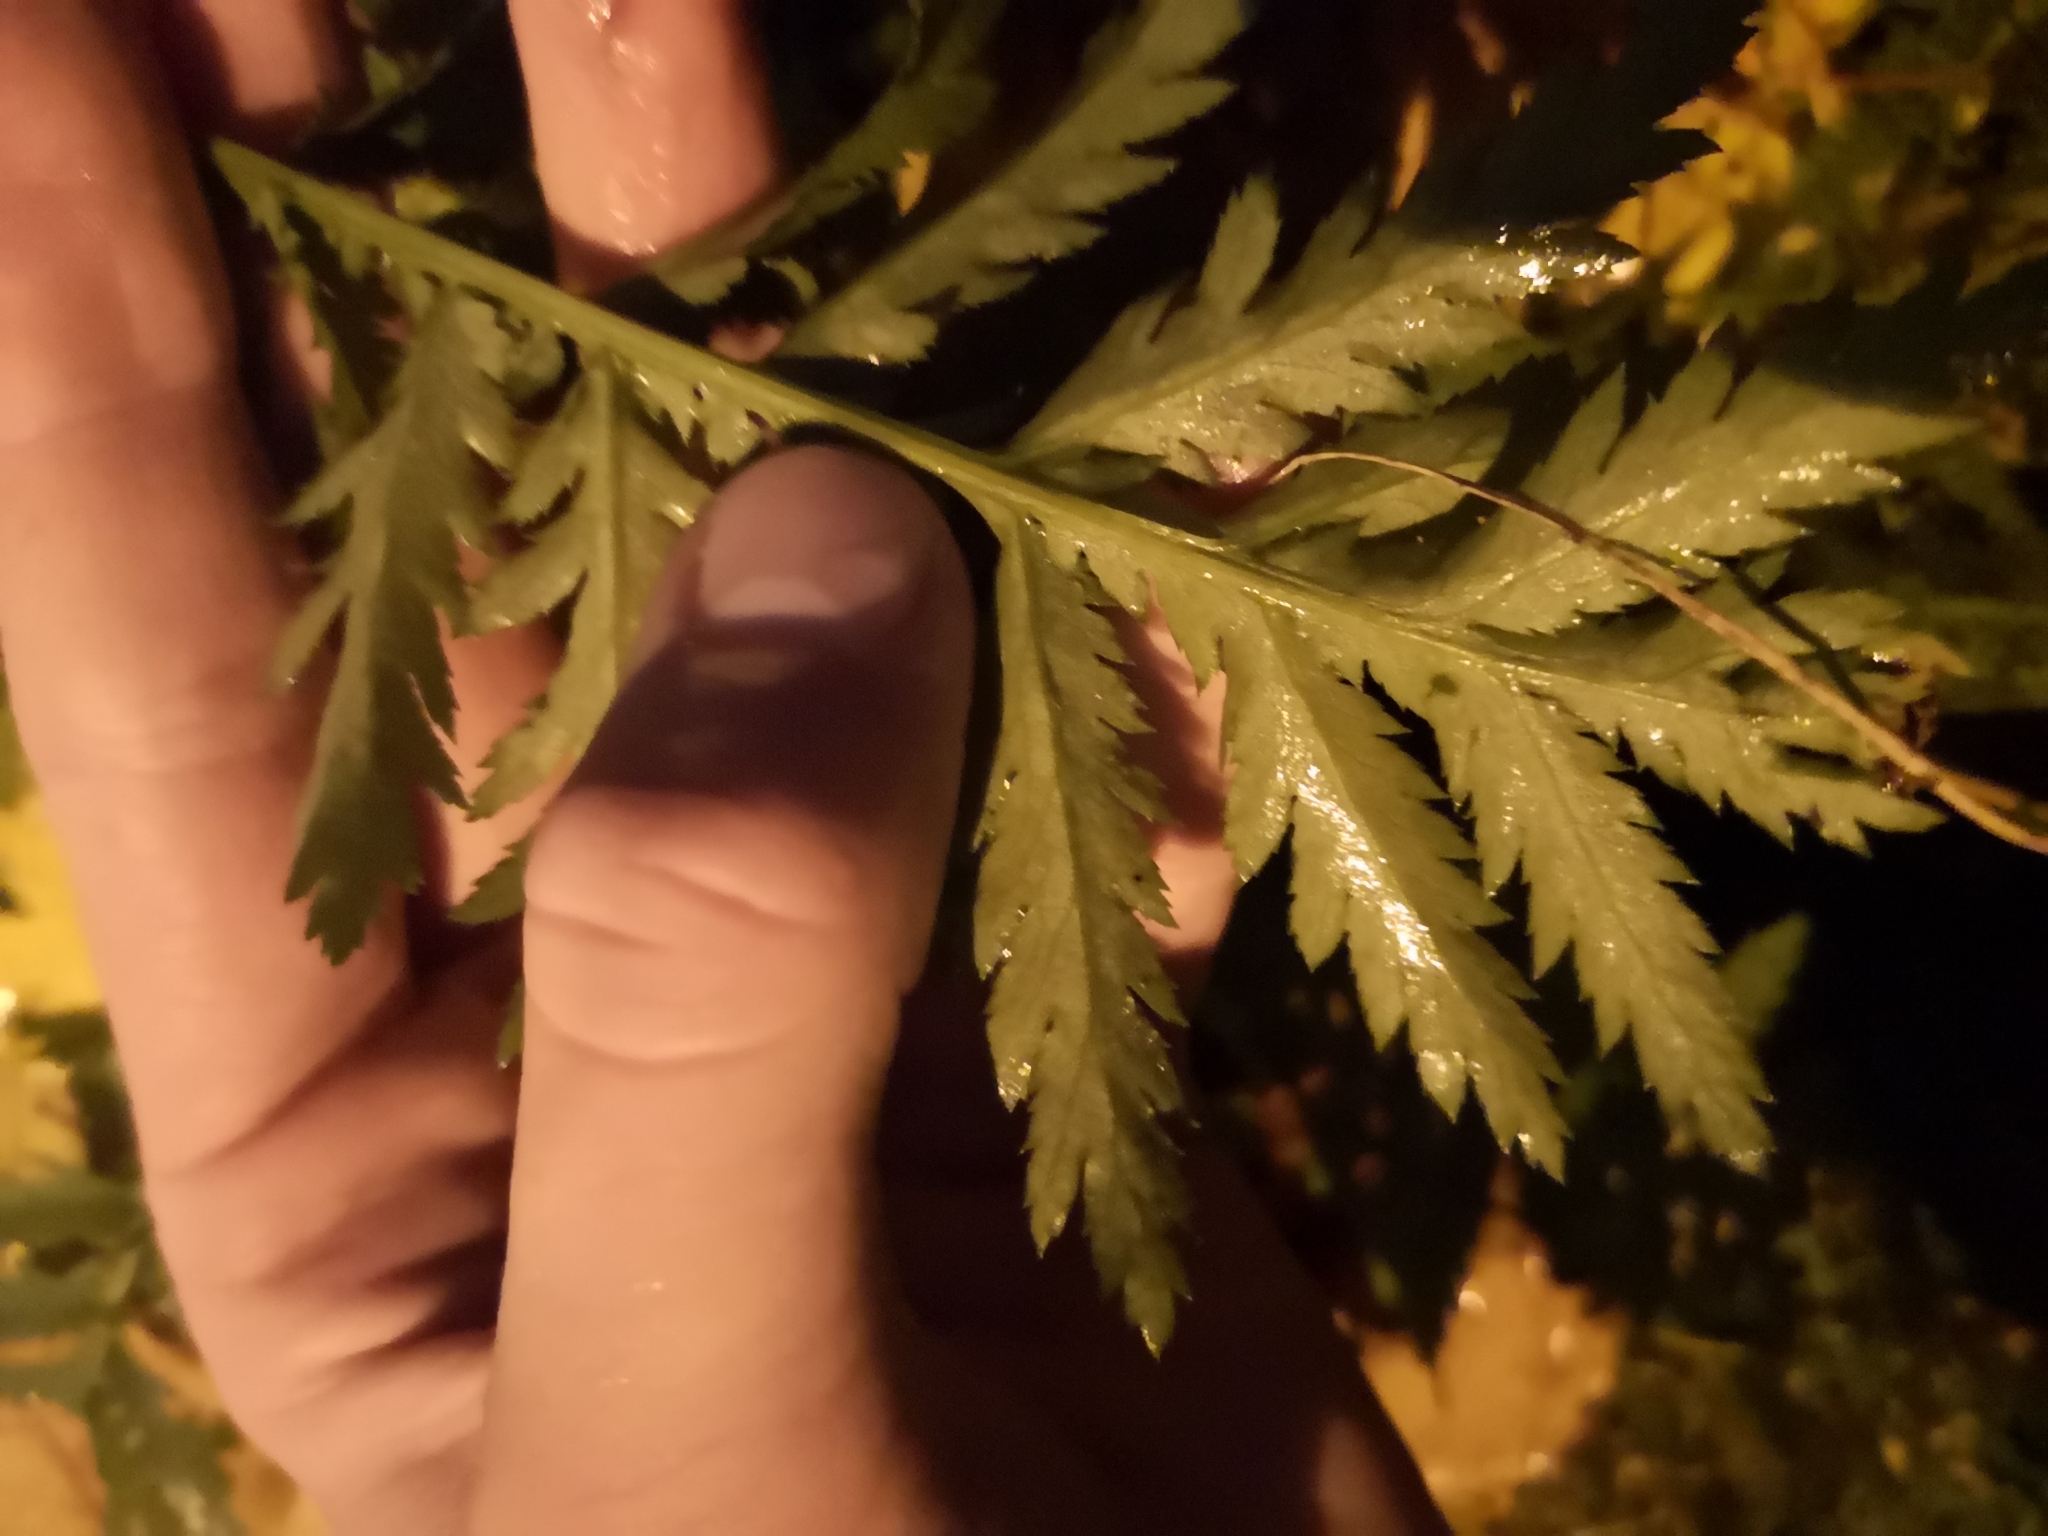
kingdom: Plantae
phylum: Tracheophyta
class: Magnoliopsida
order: Asterales
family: Asteraceae
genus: Tanacetum
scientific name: Tanacetum vulgare
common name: Common tansy
